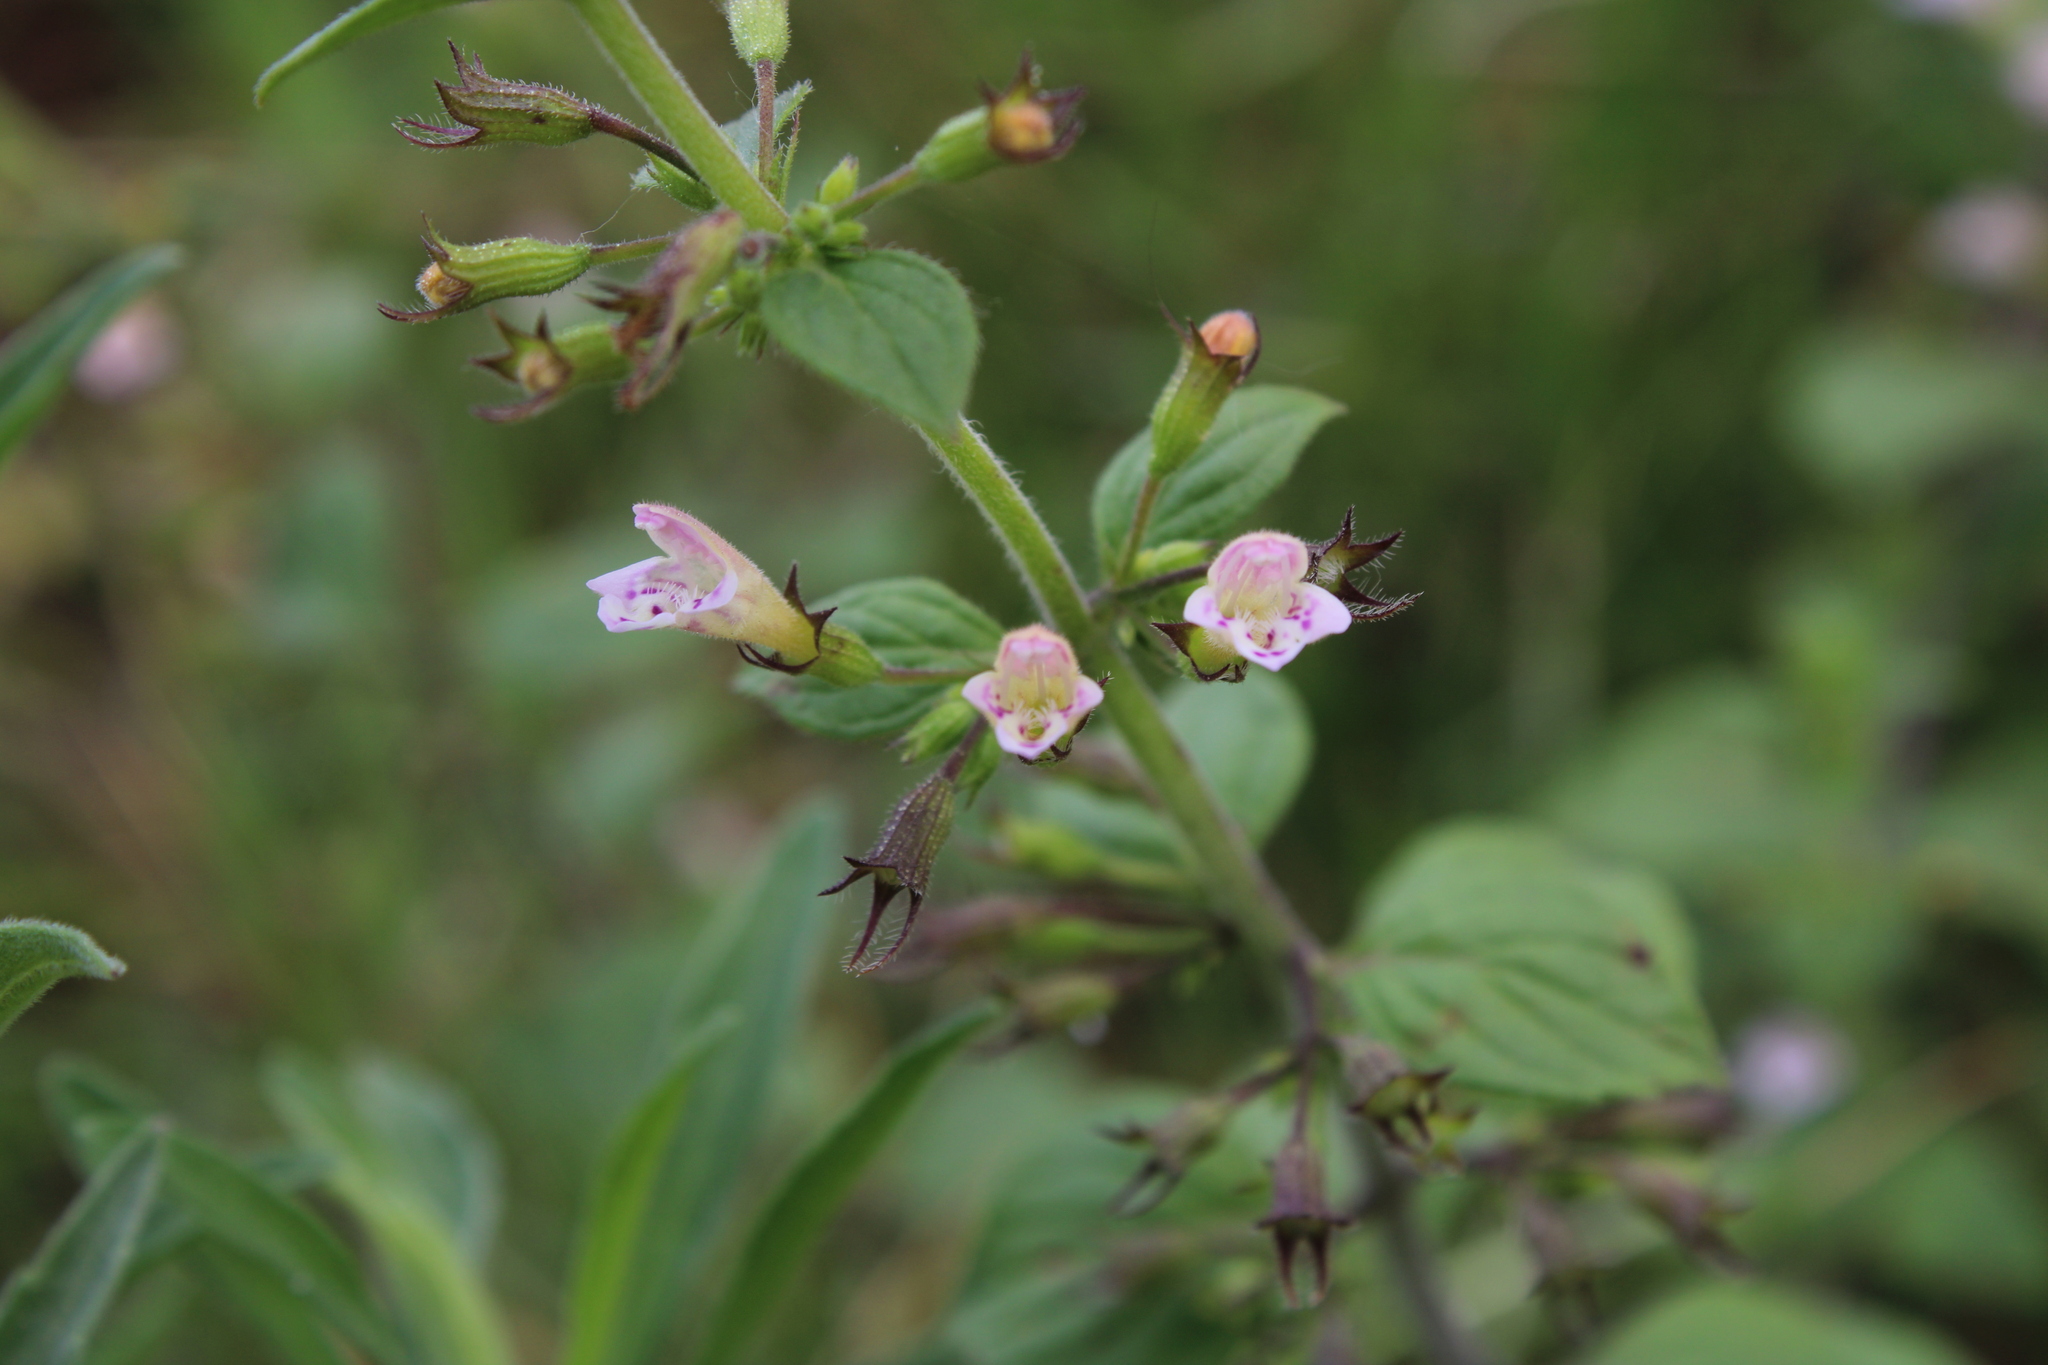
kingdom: Plantae
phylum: Tracheophyta
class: Magnoliopsida
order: Lamiales
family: Lamiaceae
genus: Clinopodium
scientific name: Clinopodium menthifolium
